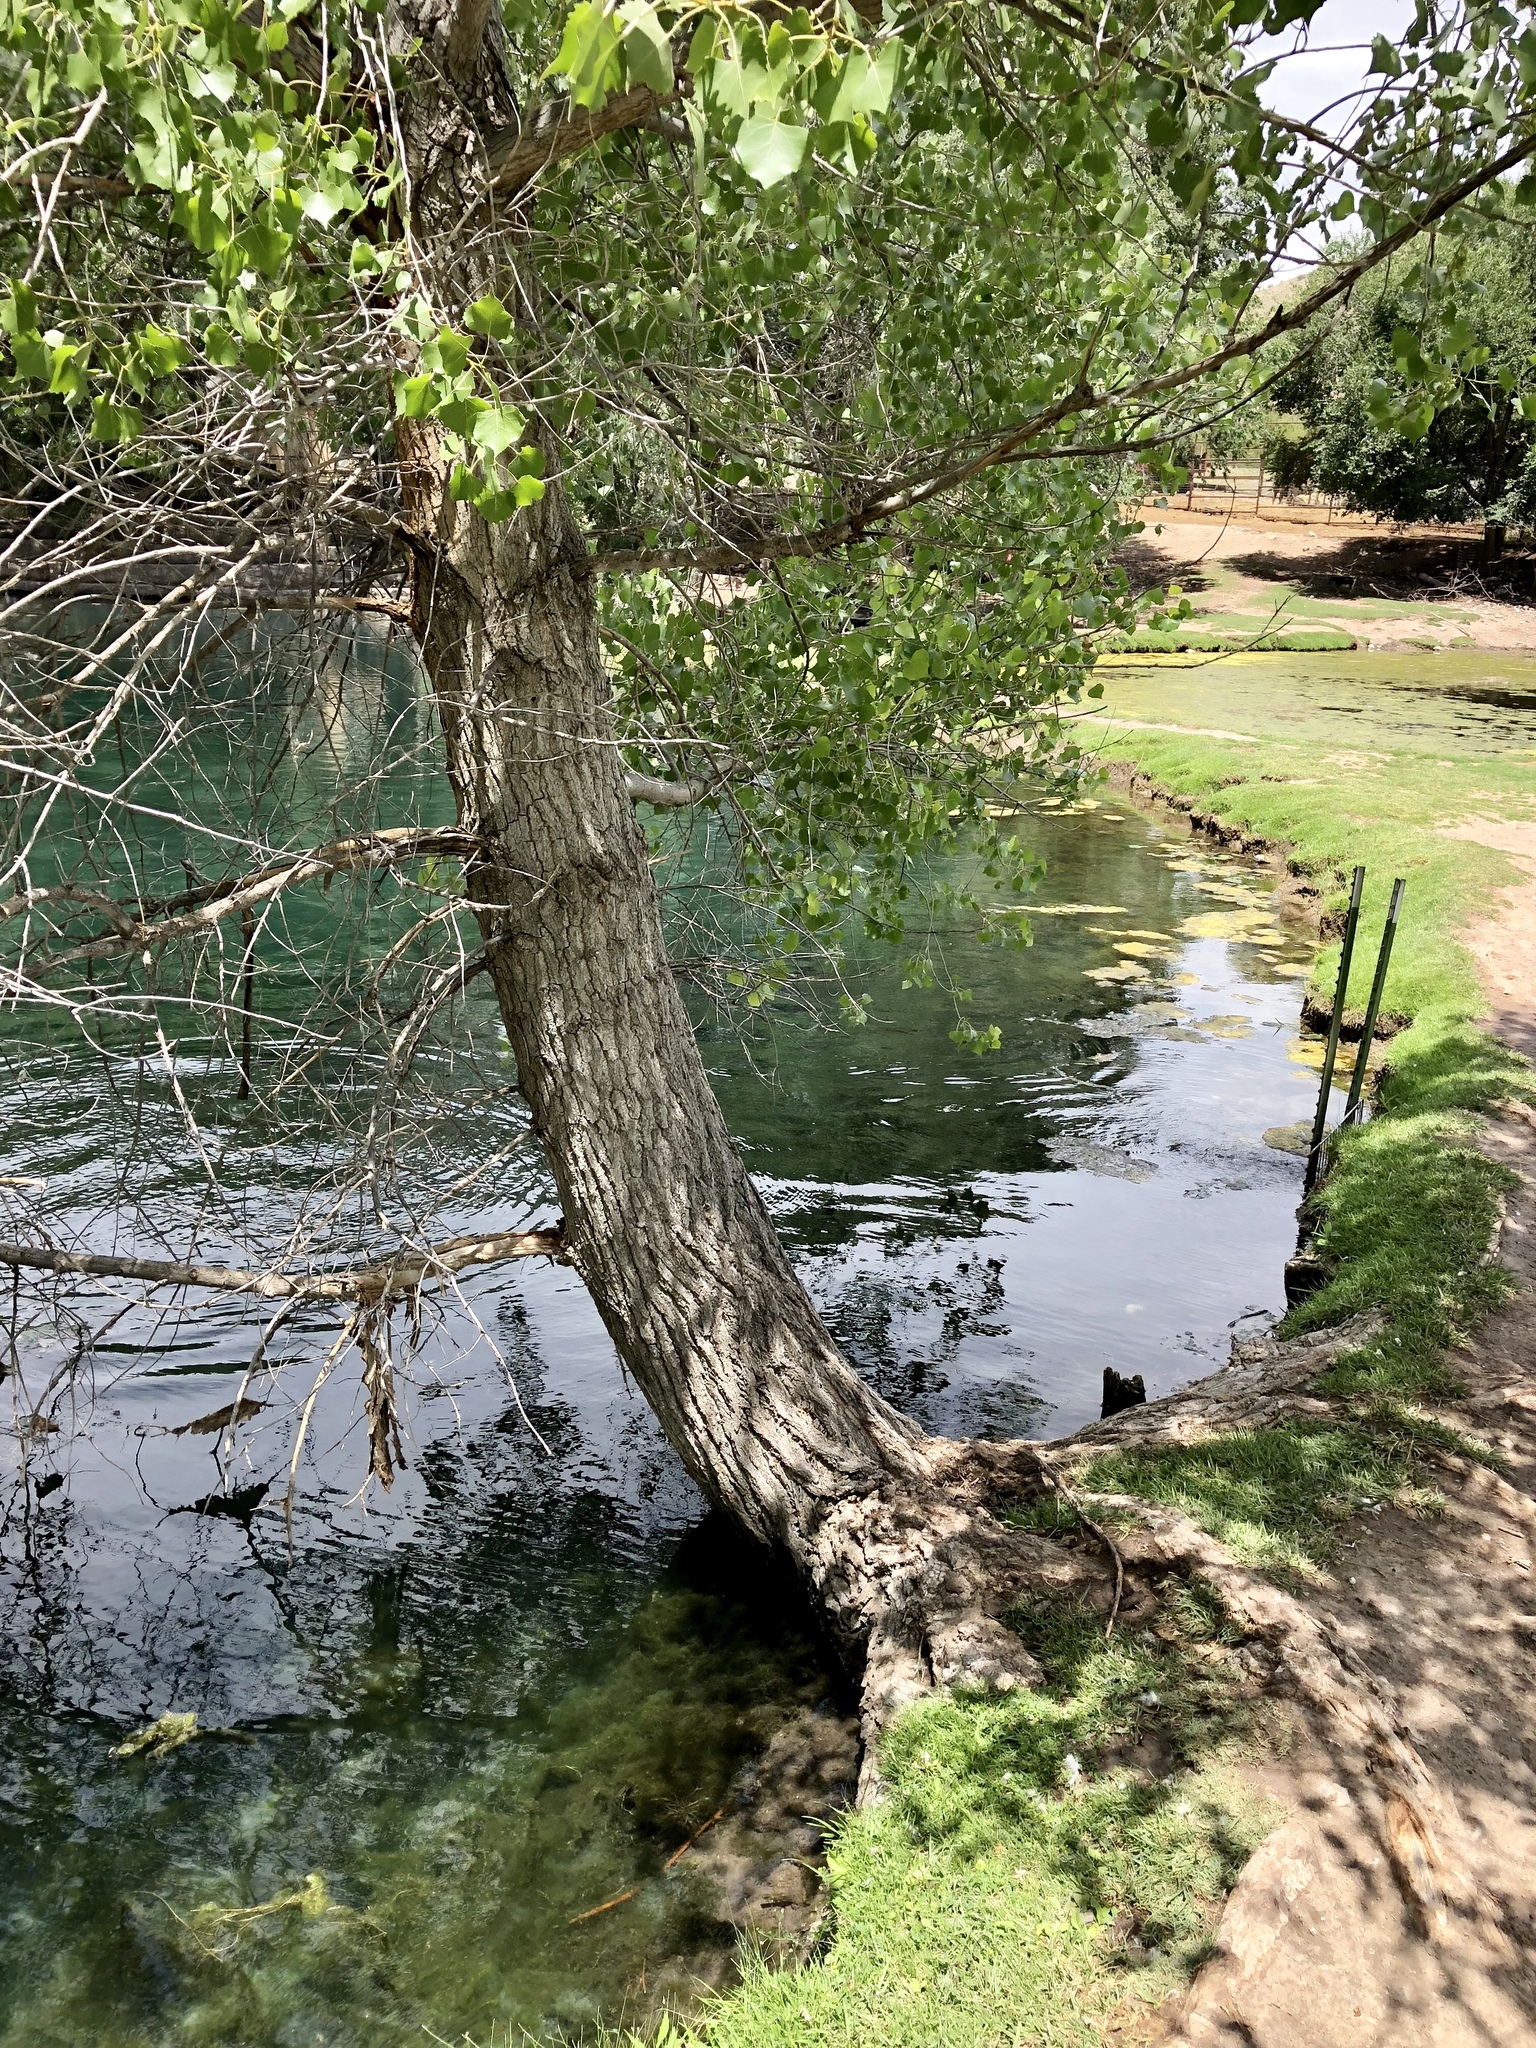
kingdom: Plantae
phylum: Tracheophyta
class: Magnoliopsida
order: Malpighiales
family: Salicaceae
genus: Populus
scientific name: Populus fremontii
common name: Fremont's cottonwood
